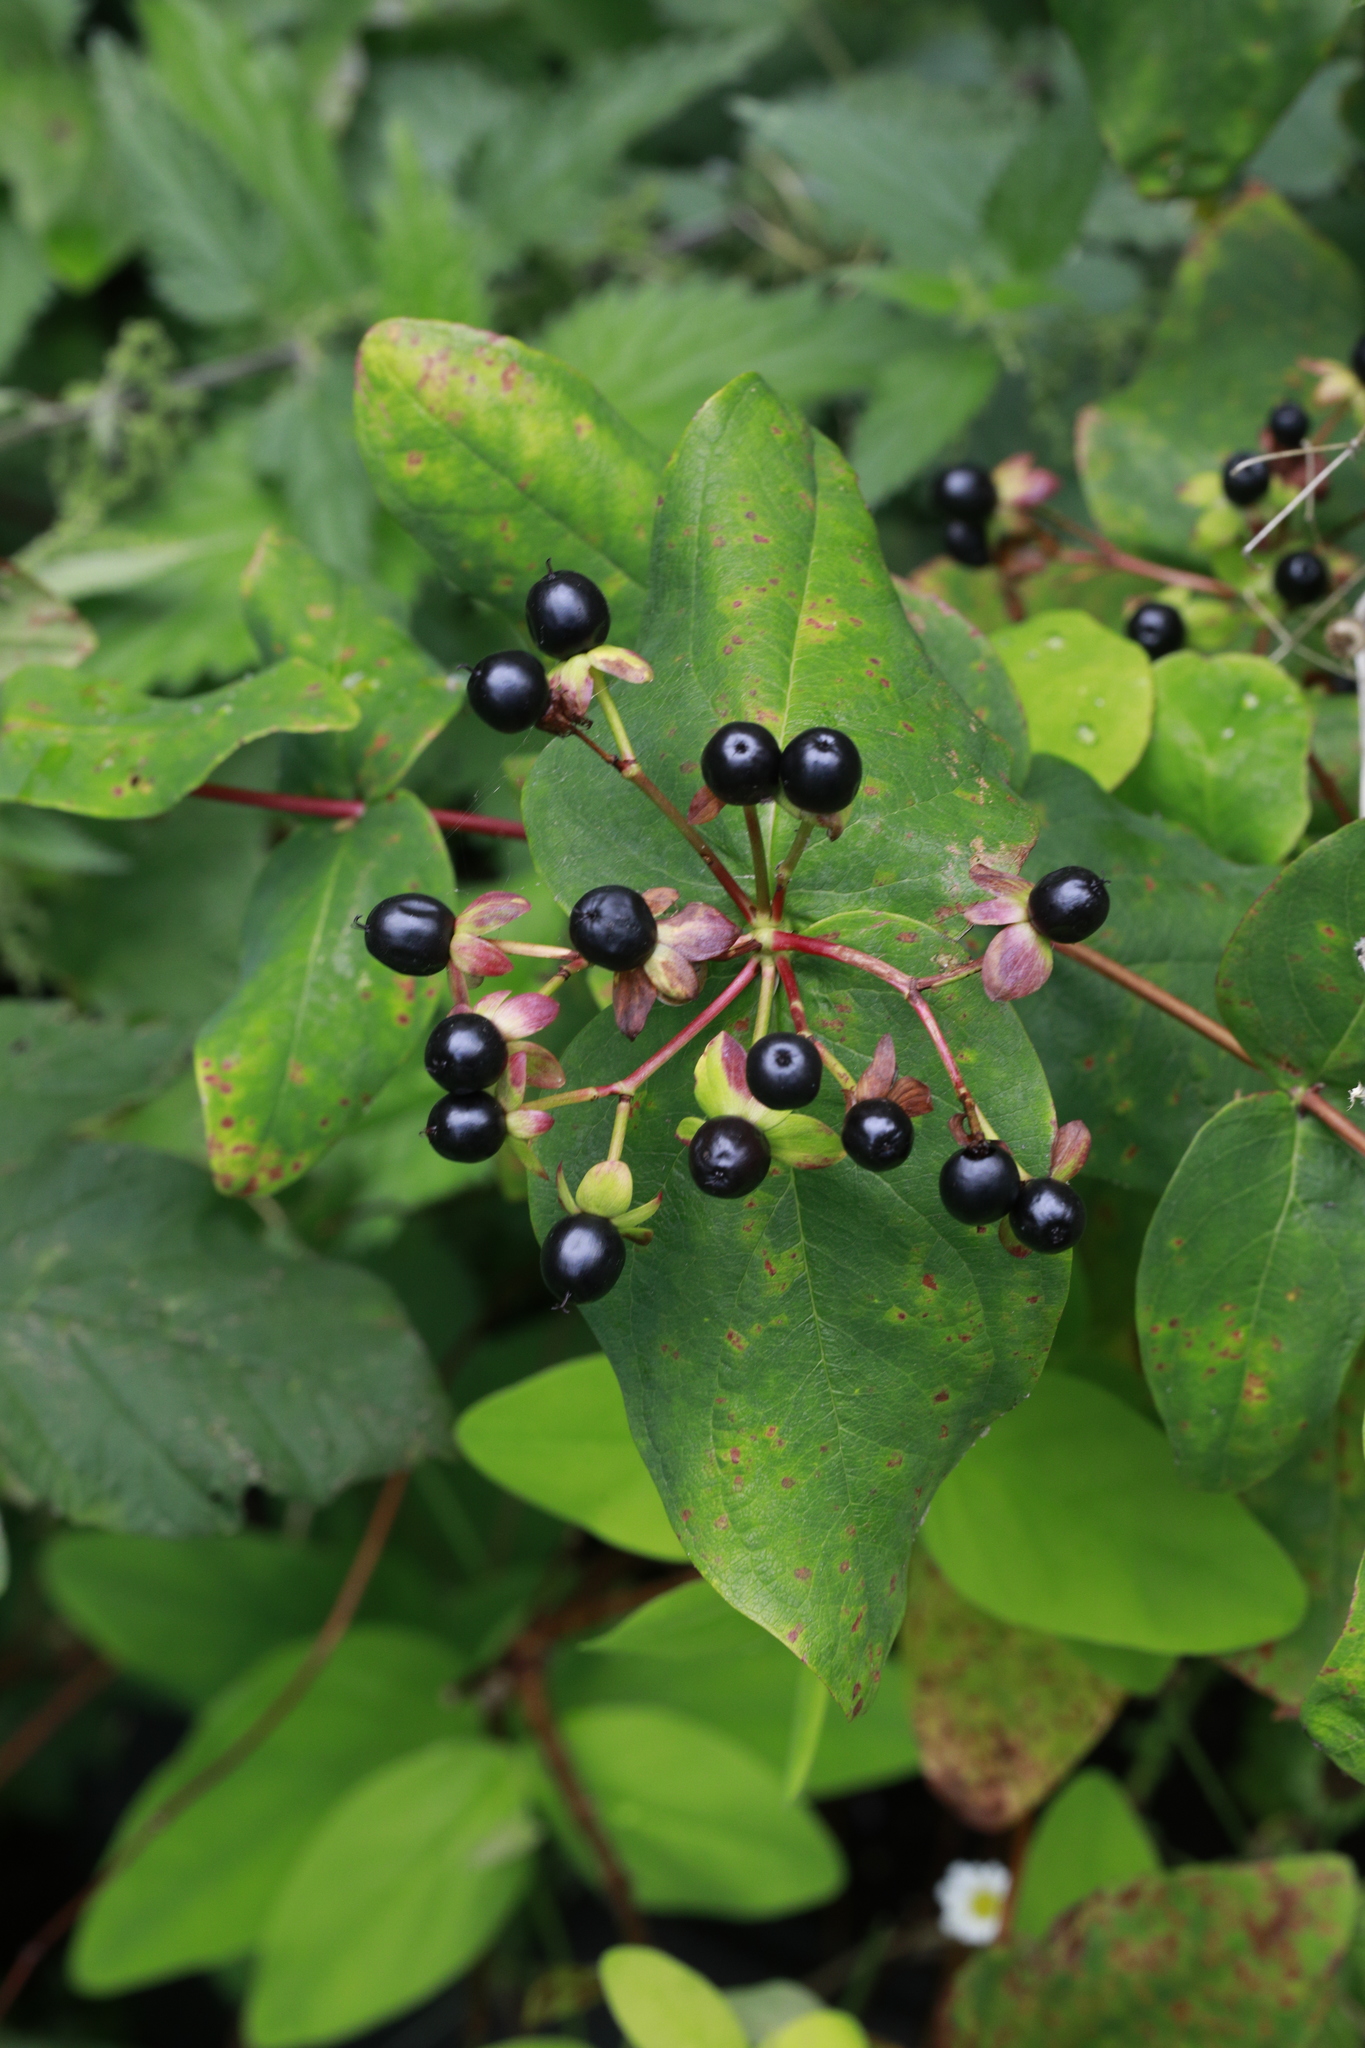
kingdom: Plantae
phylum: Tracheophyta
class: Magnoliopsida
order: Malpighiales
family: Hypericaceae
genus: Hypericum
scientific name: Hypericum androsaemum
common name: Sweet-amber
